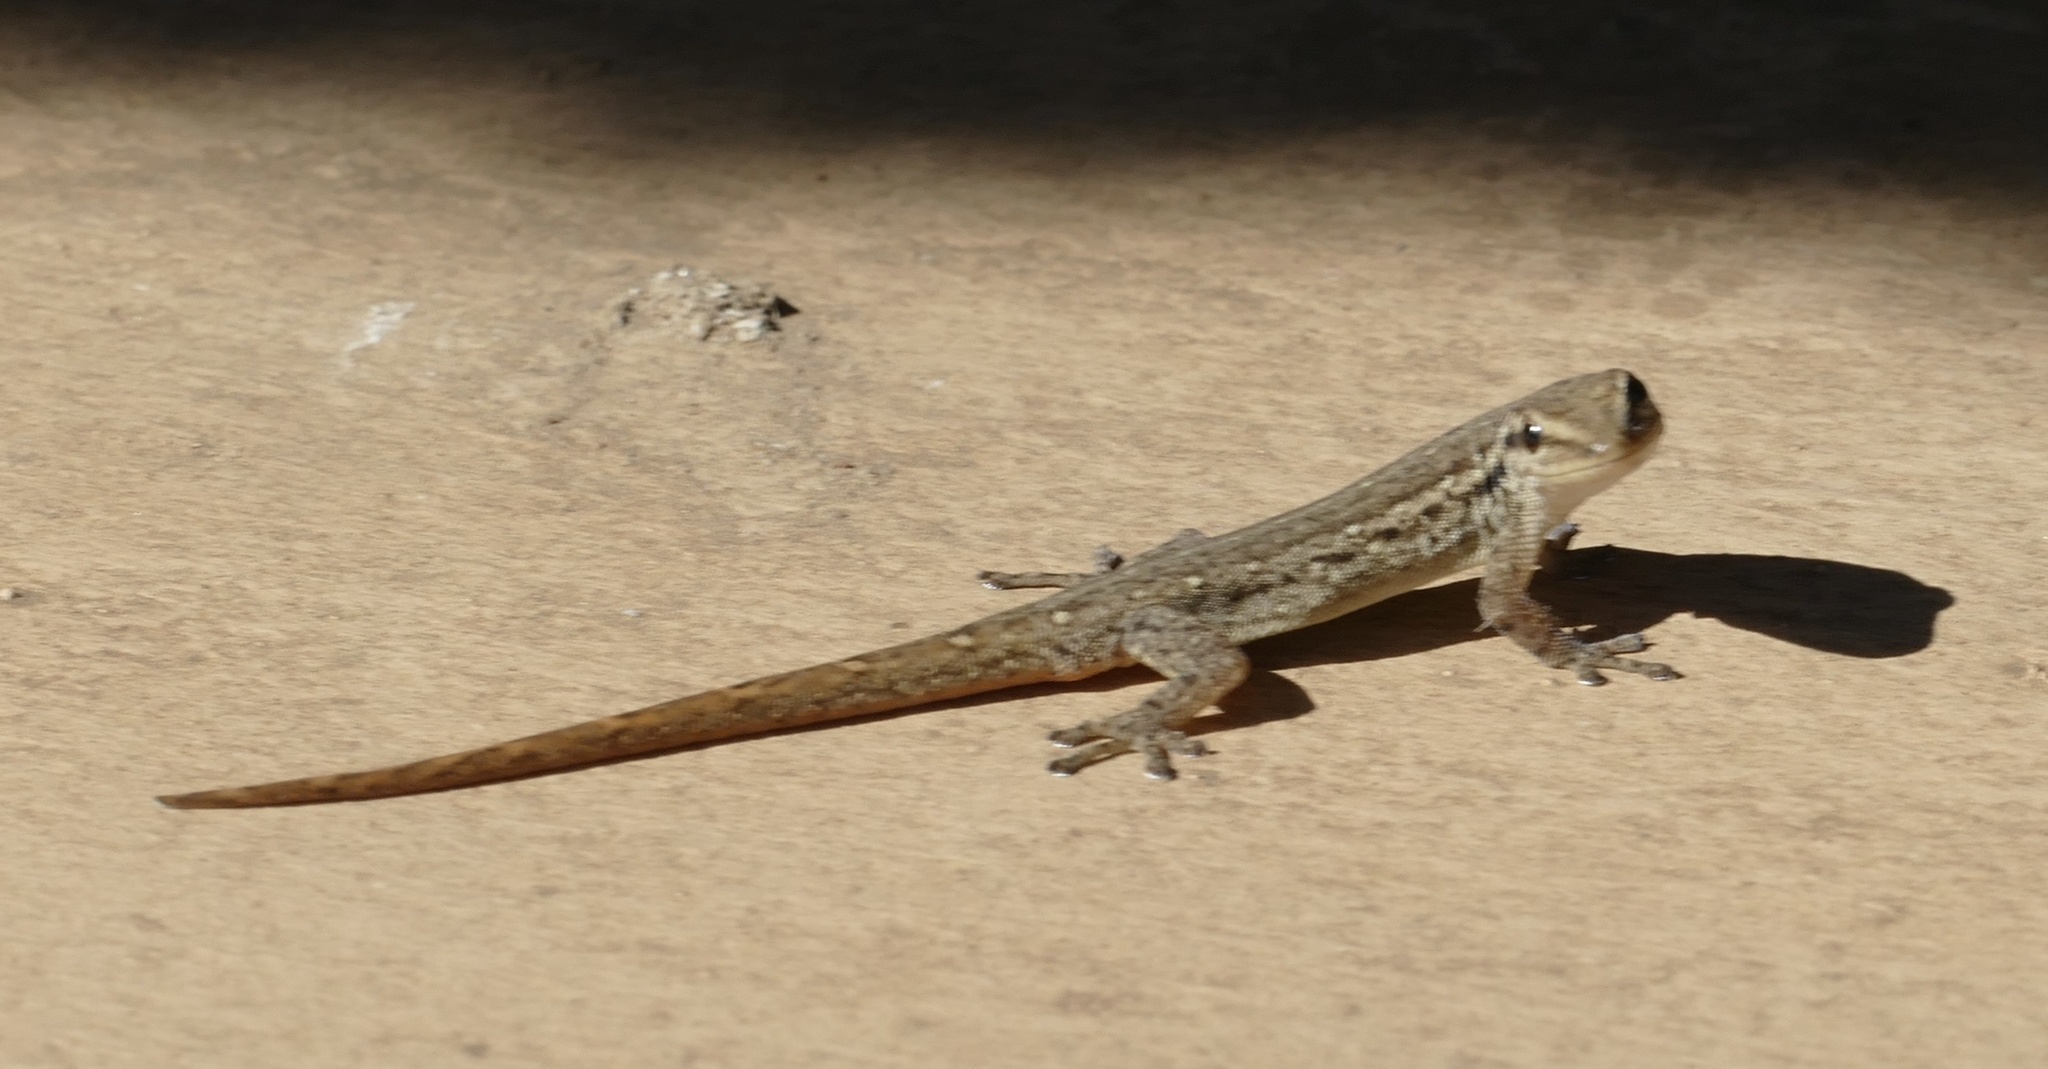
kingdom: Animalia
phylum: Chordata
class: Squamata
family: Gekkonidae
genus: Lygodactylus
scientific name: Lygodactylus capensis
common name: Cape dwarf gecko
